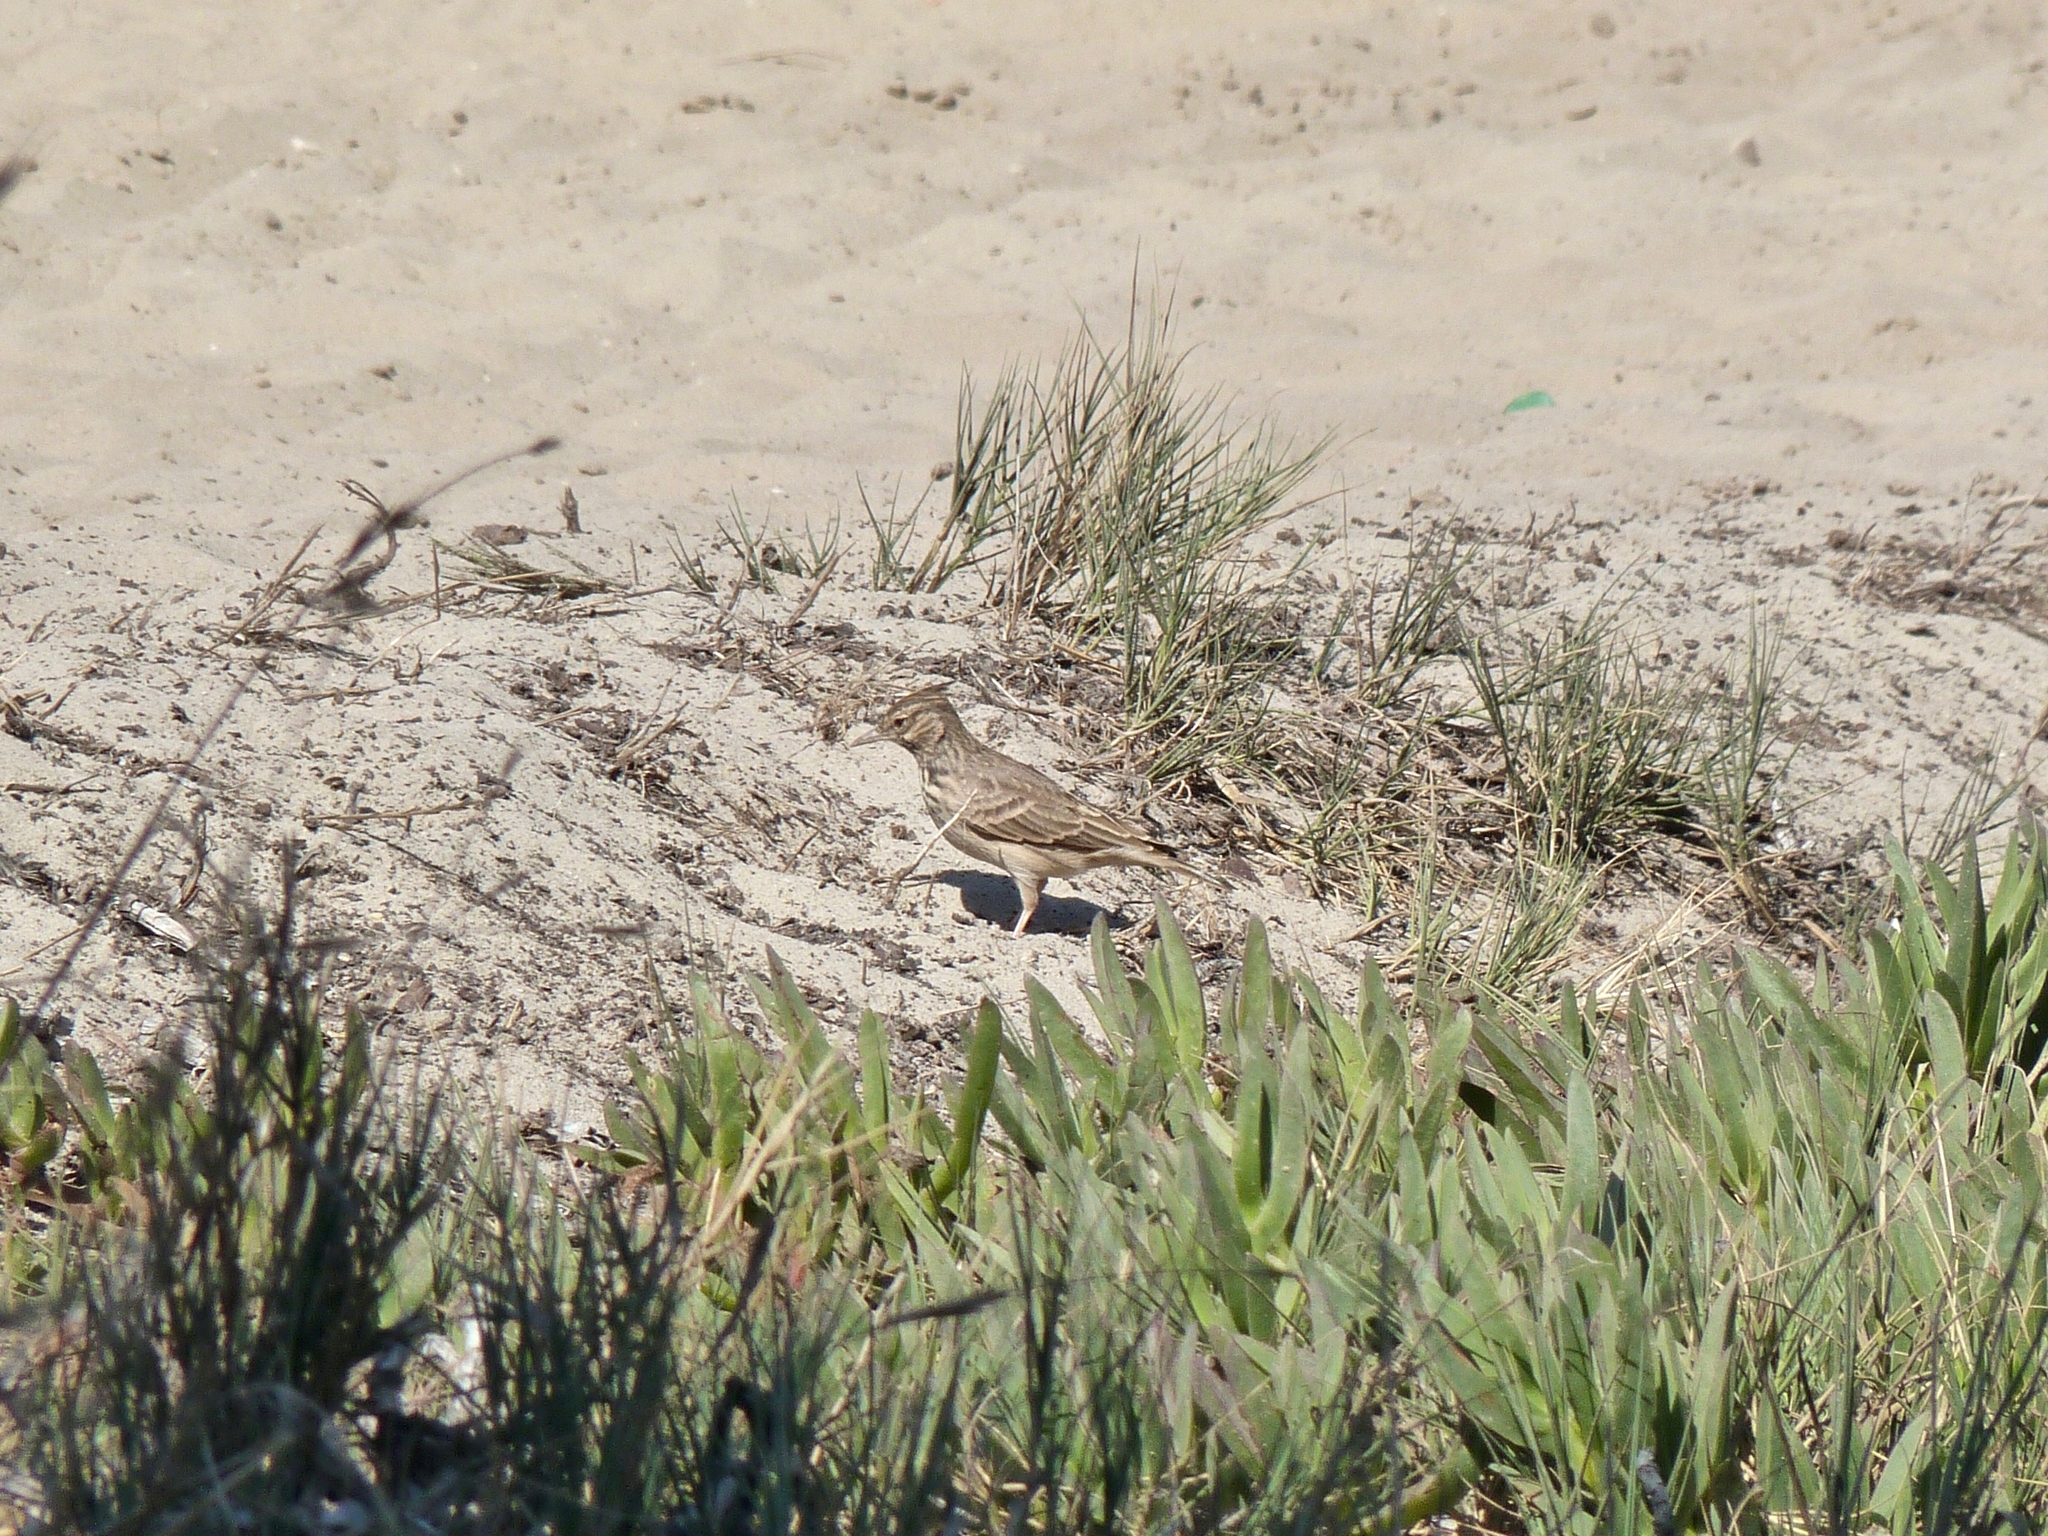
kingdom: Animalia
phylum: Chordata
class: Aves
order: Passeriformes
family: Alaudidae
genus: Galerida
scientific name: Galerida cristata
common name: Crested lark
